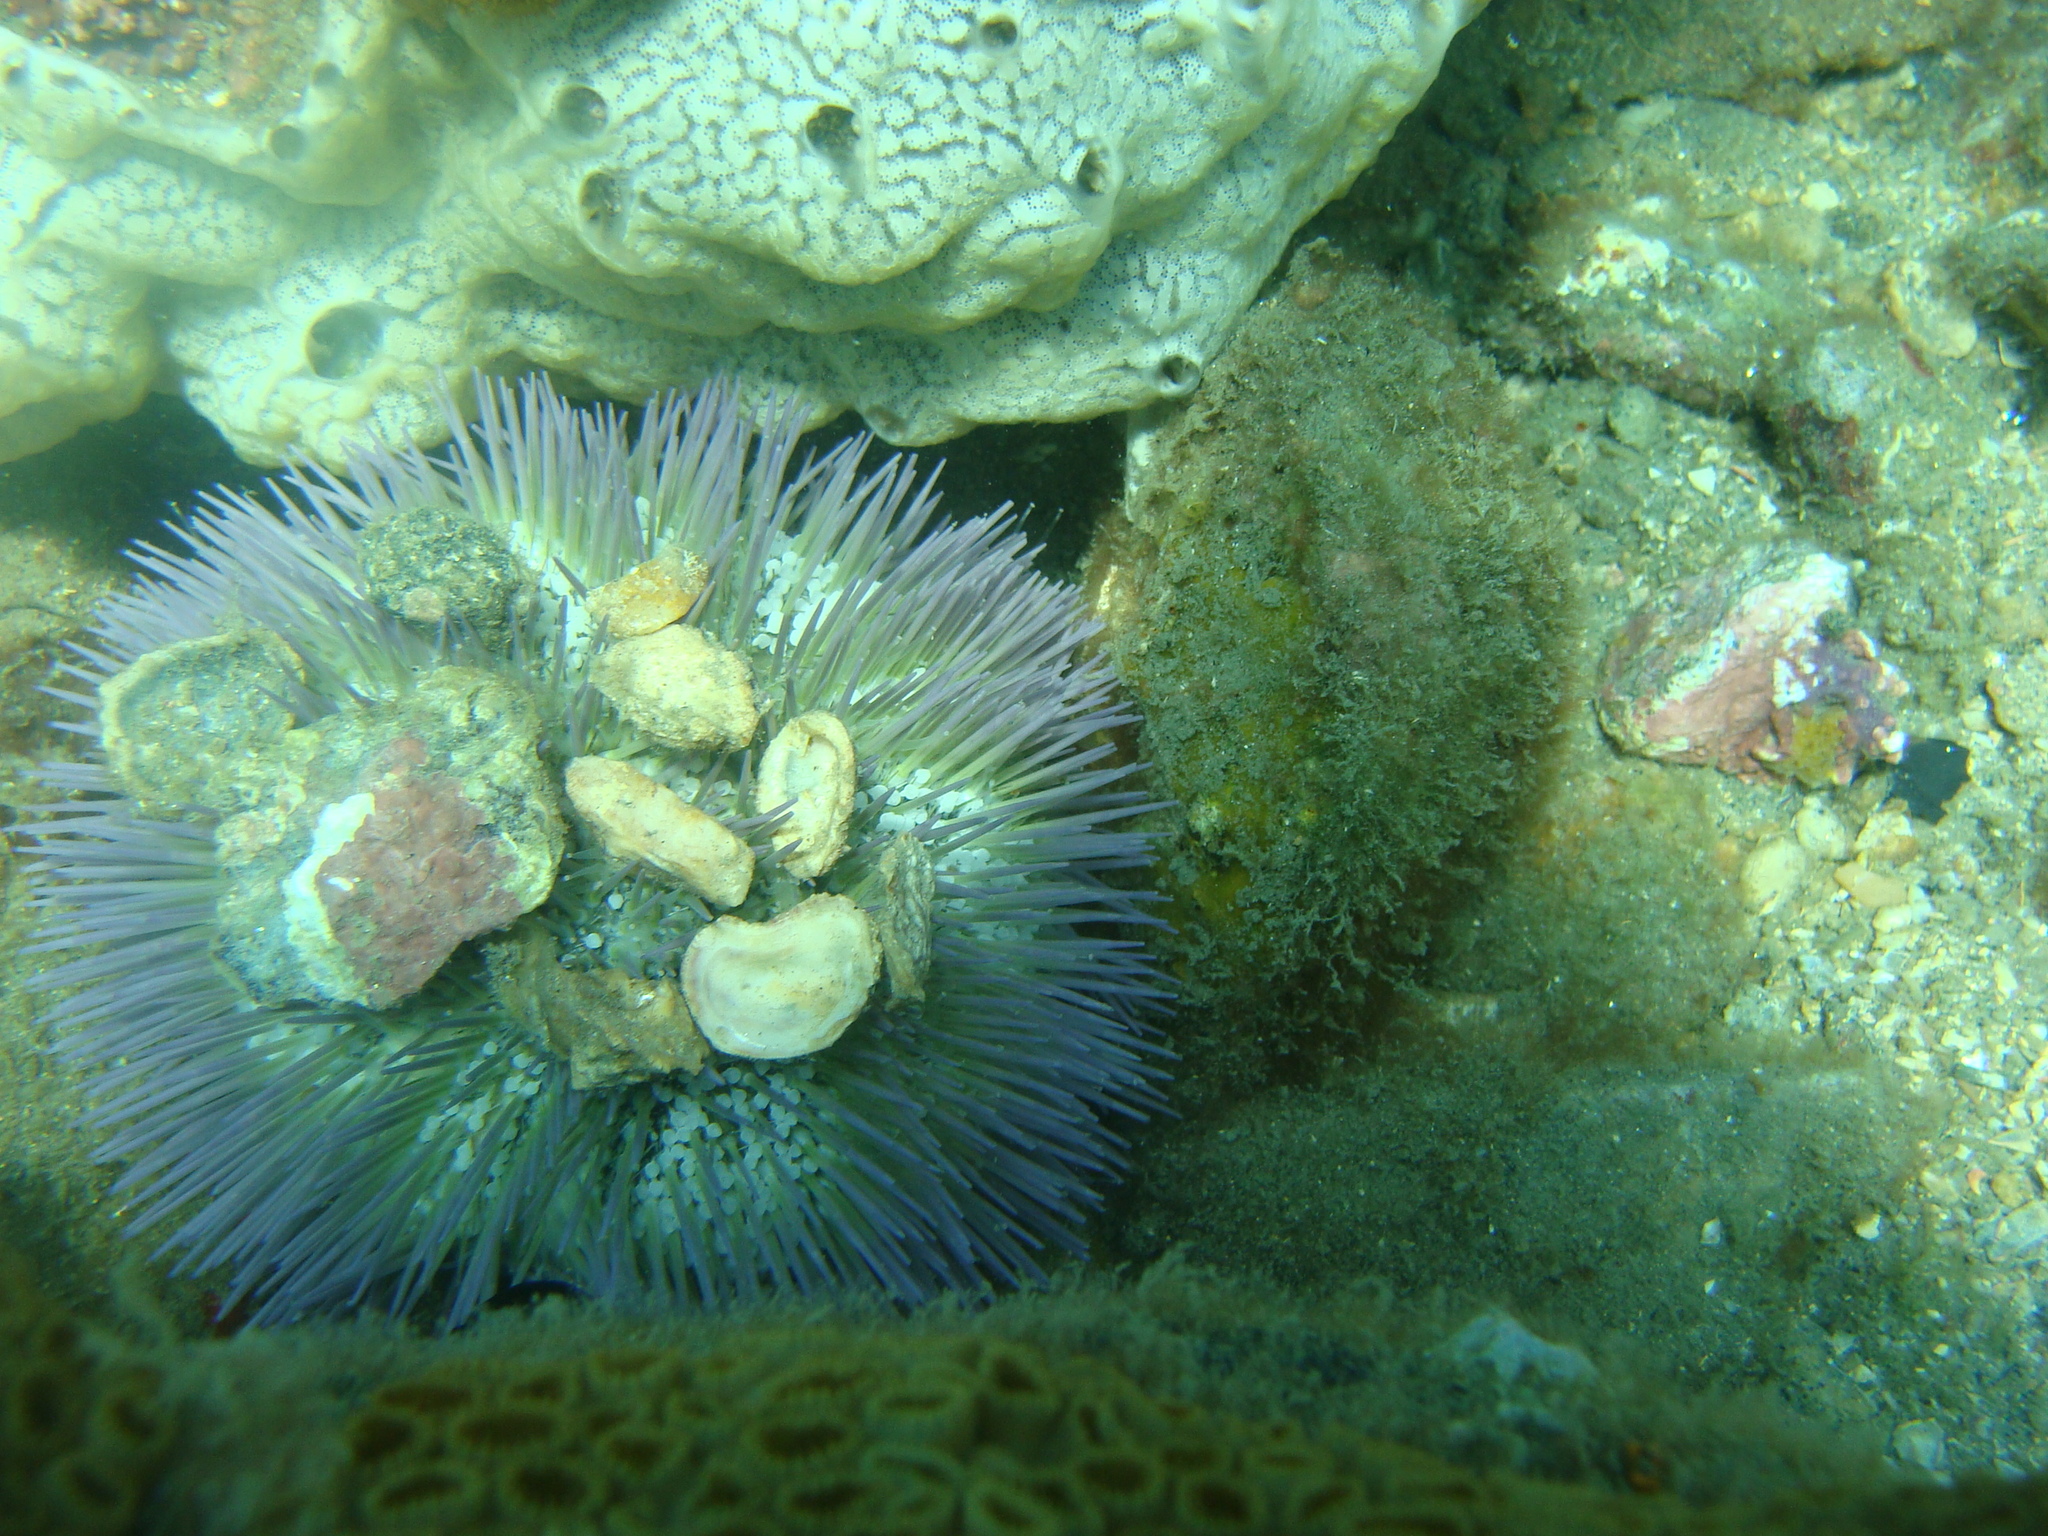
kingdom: Animalia
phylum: Echinodermata
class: Echinoidea
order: Camarodonta
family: Toxopneustidae
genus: Lytechinus
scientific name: Lytechinus variegatus
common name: Variegated urchin
